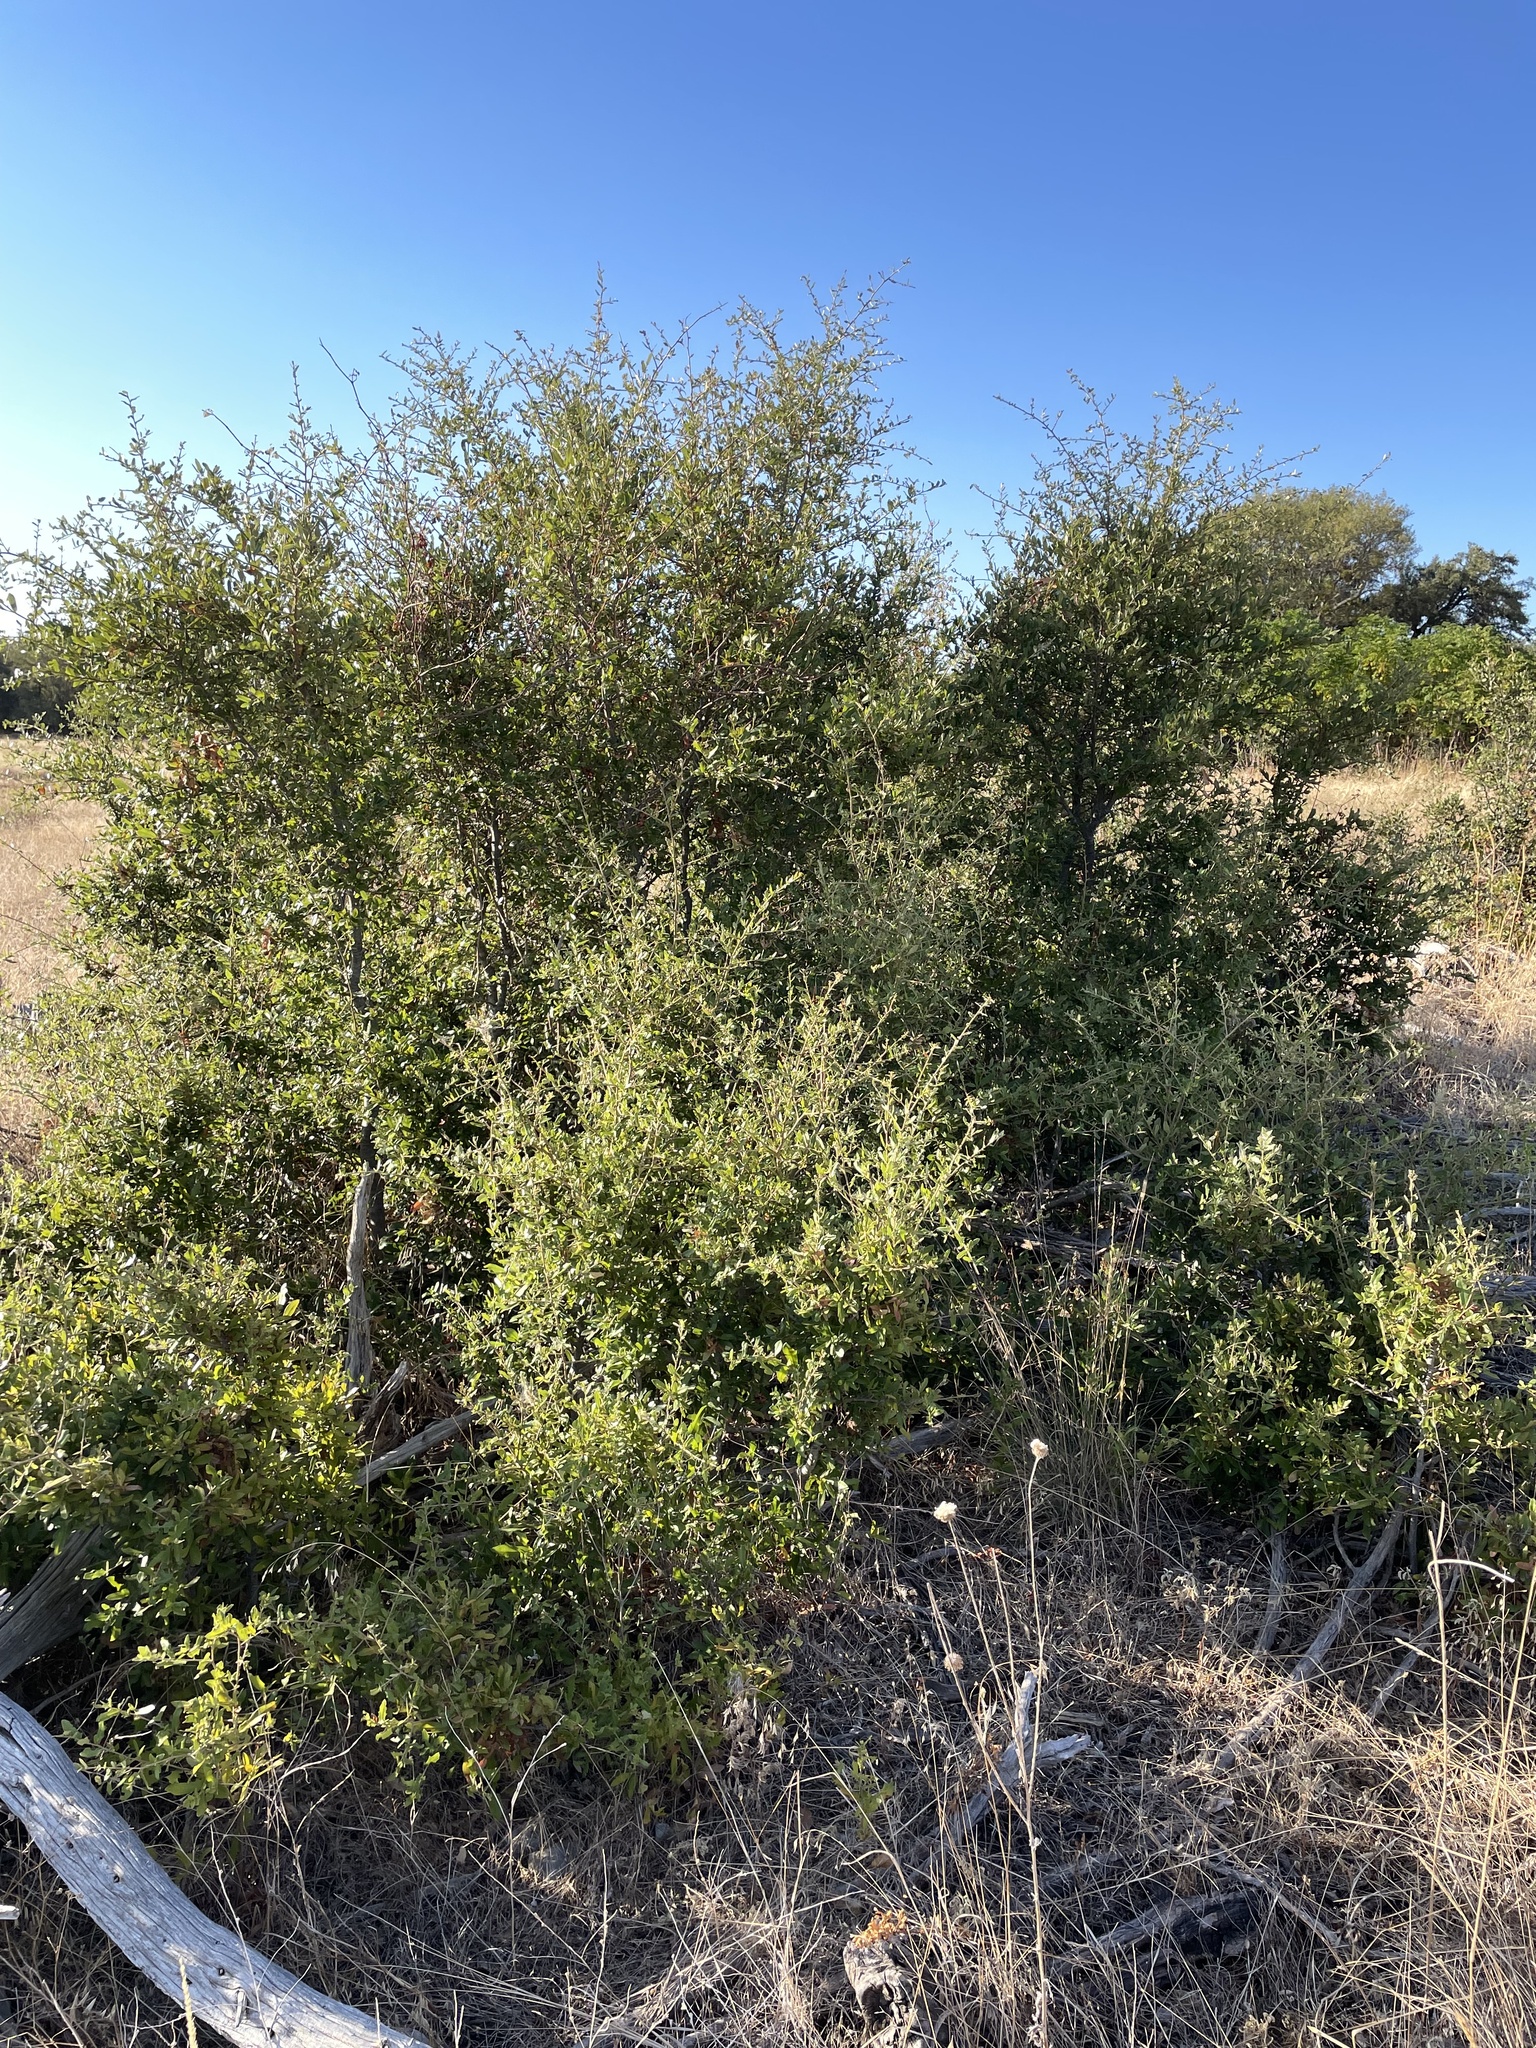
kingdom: Plantae
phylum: Tracheophyta
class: Magnoliopsida
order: Fagales
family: Fagaceae
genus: Quercus
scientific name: Quercus fusiformis
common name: Texas live oak
